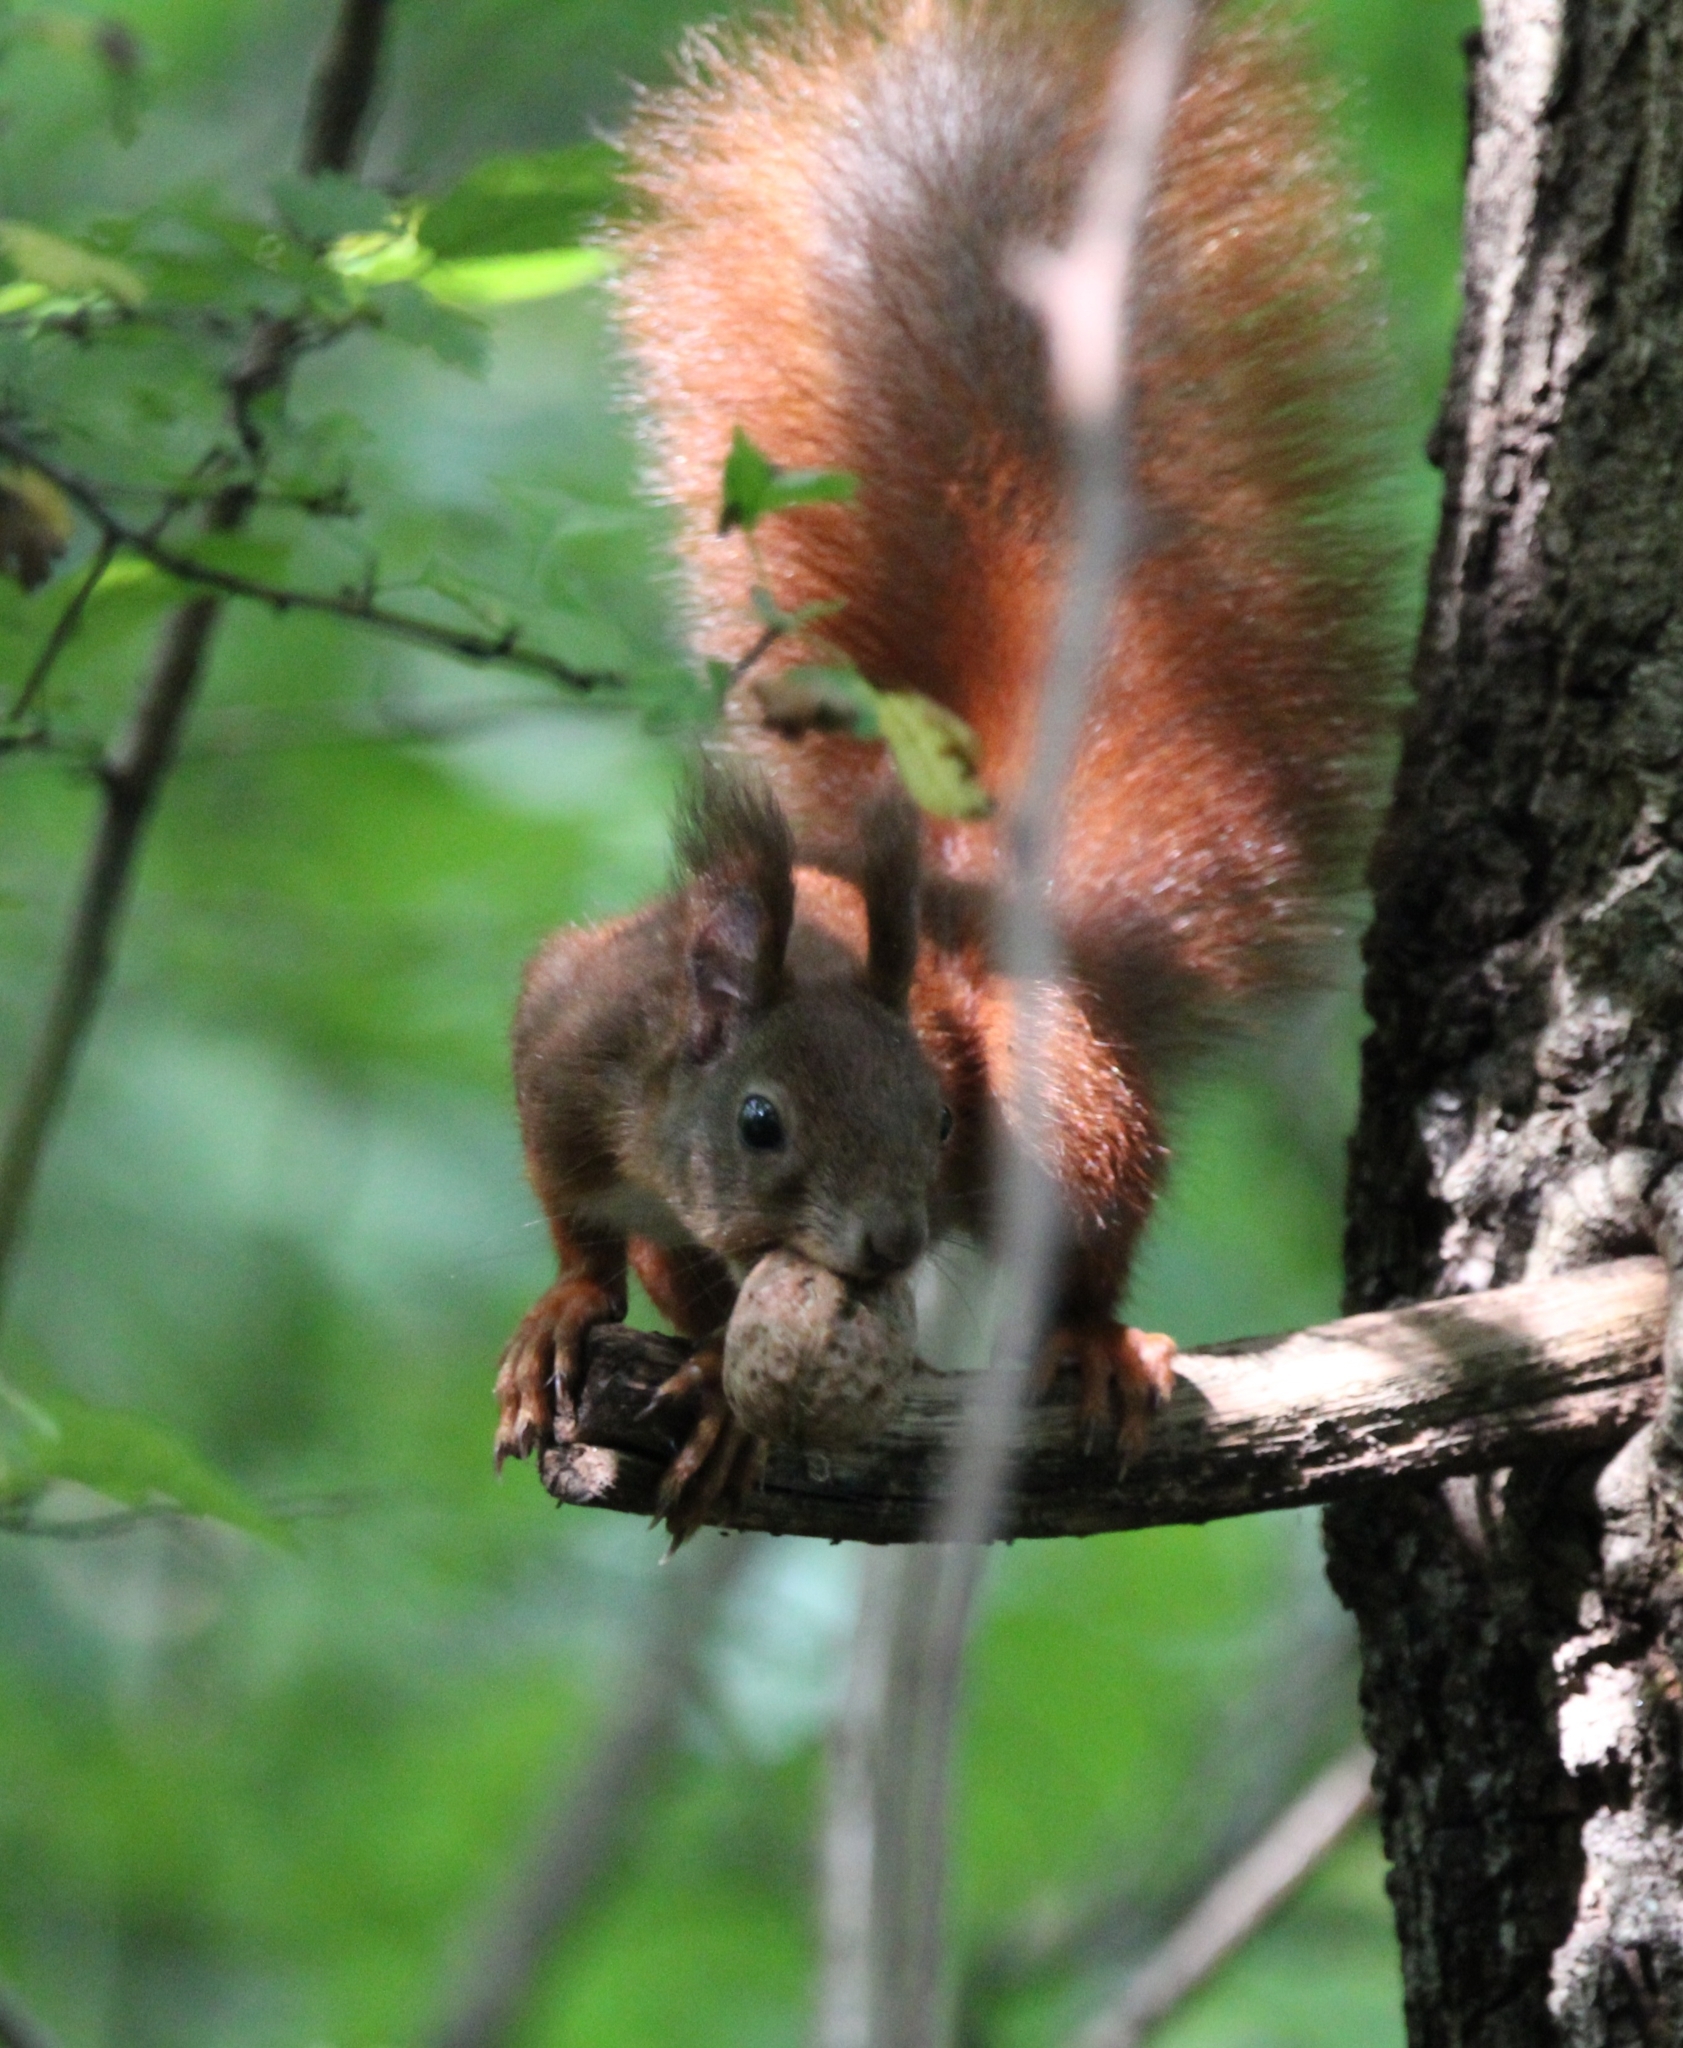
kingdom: Animalia
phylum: Chordata
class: Mammalia
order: Rodentia
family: Sciuridae
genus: Sciurus
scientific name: Sciurus vulgaris
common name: Eurasian red squirrel
